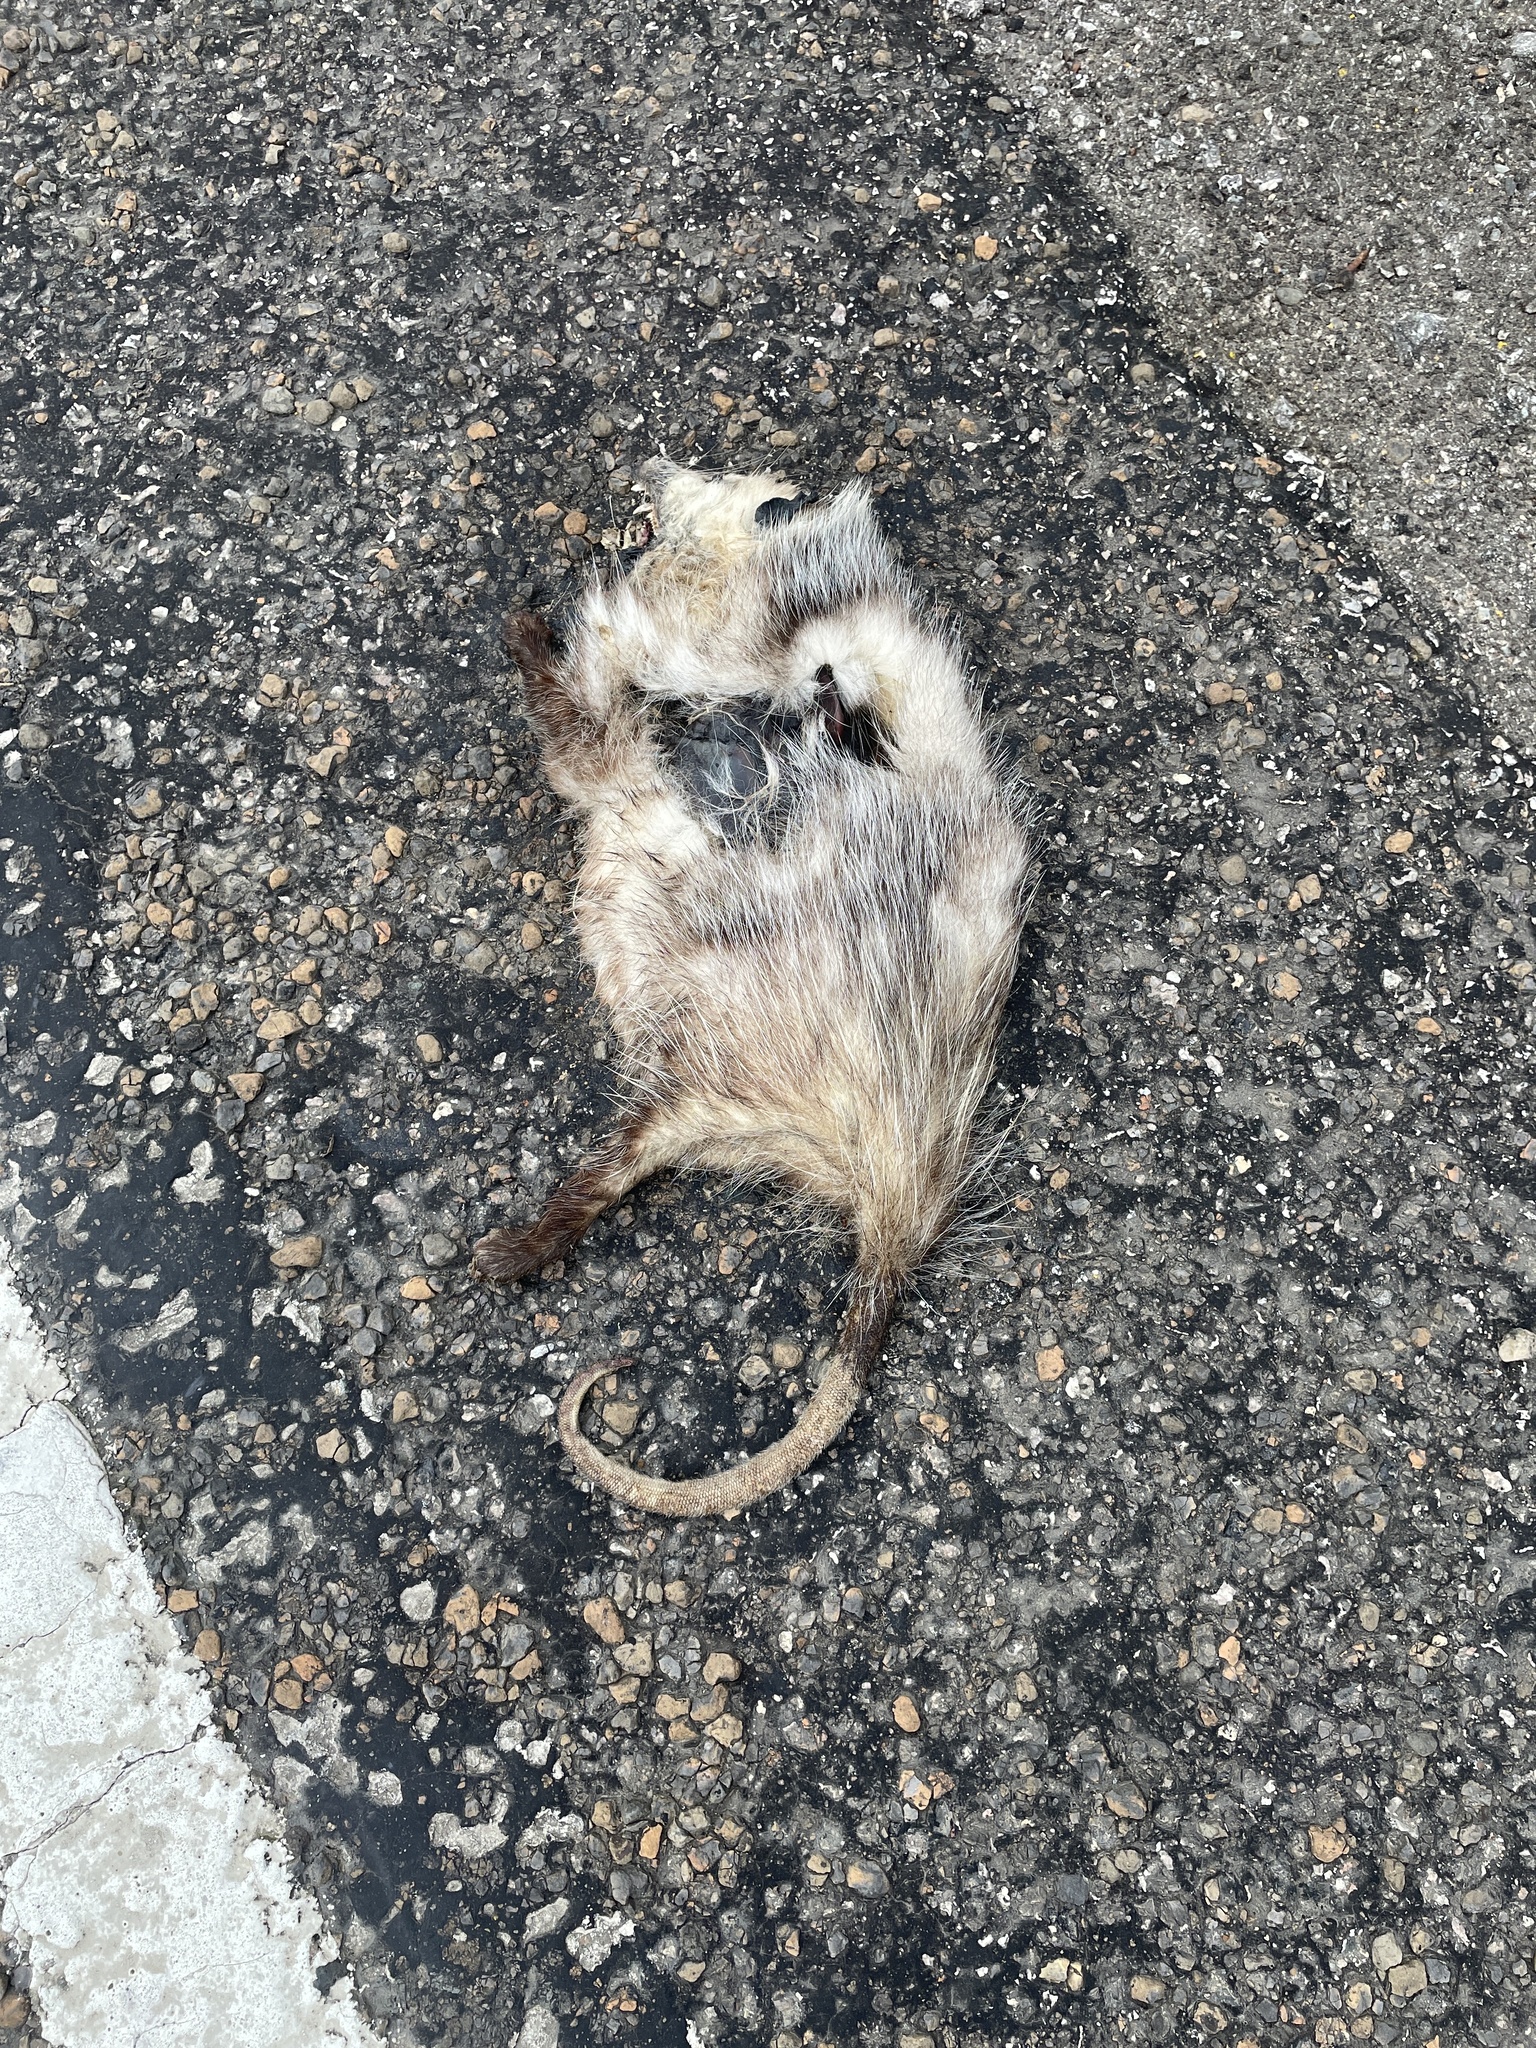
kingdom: Animalia
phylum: Chordata
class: Mammalia
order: Didelphimorphia
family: Didelphidae
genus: Didelphis
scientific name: Didelphis virginiana
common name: Virginia opossum
